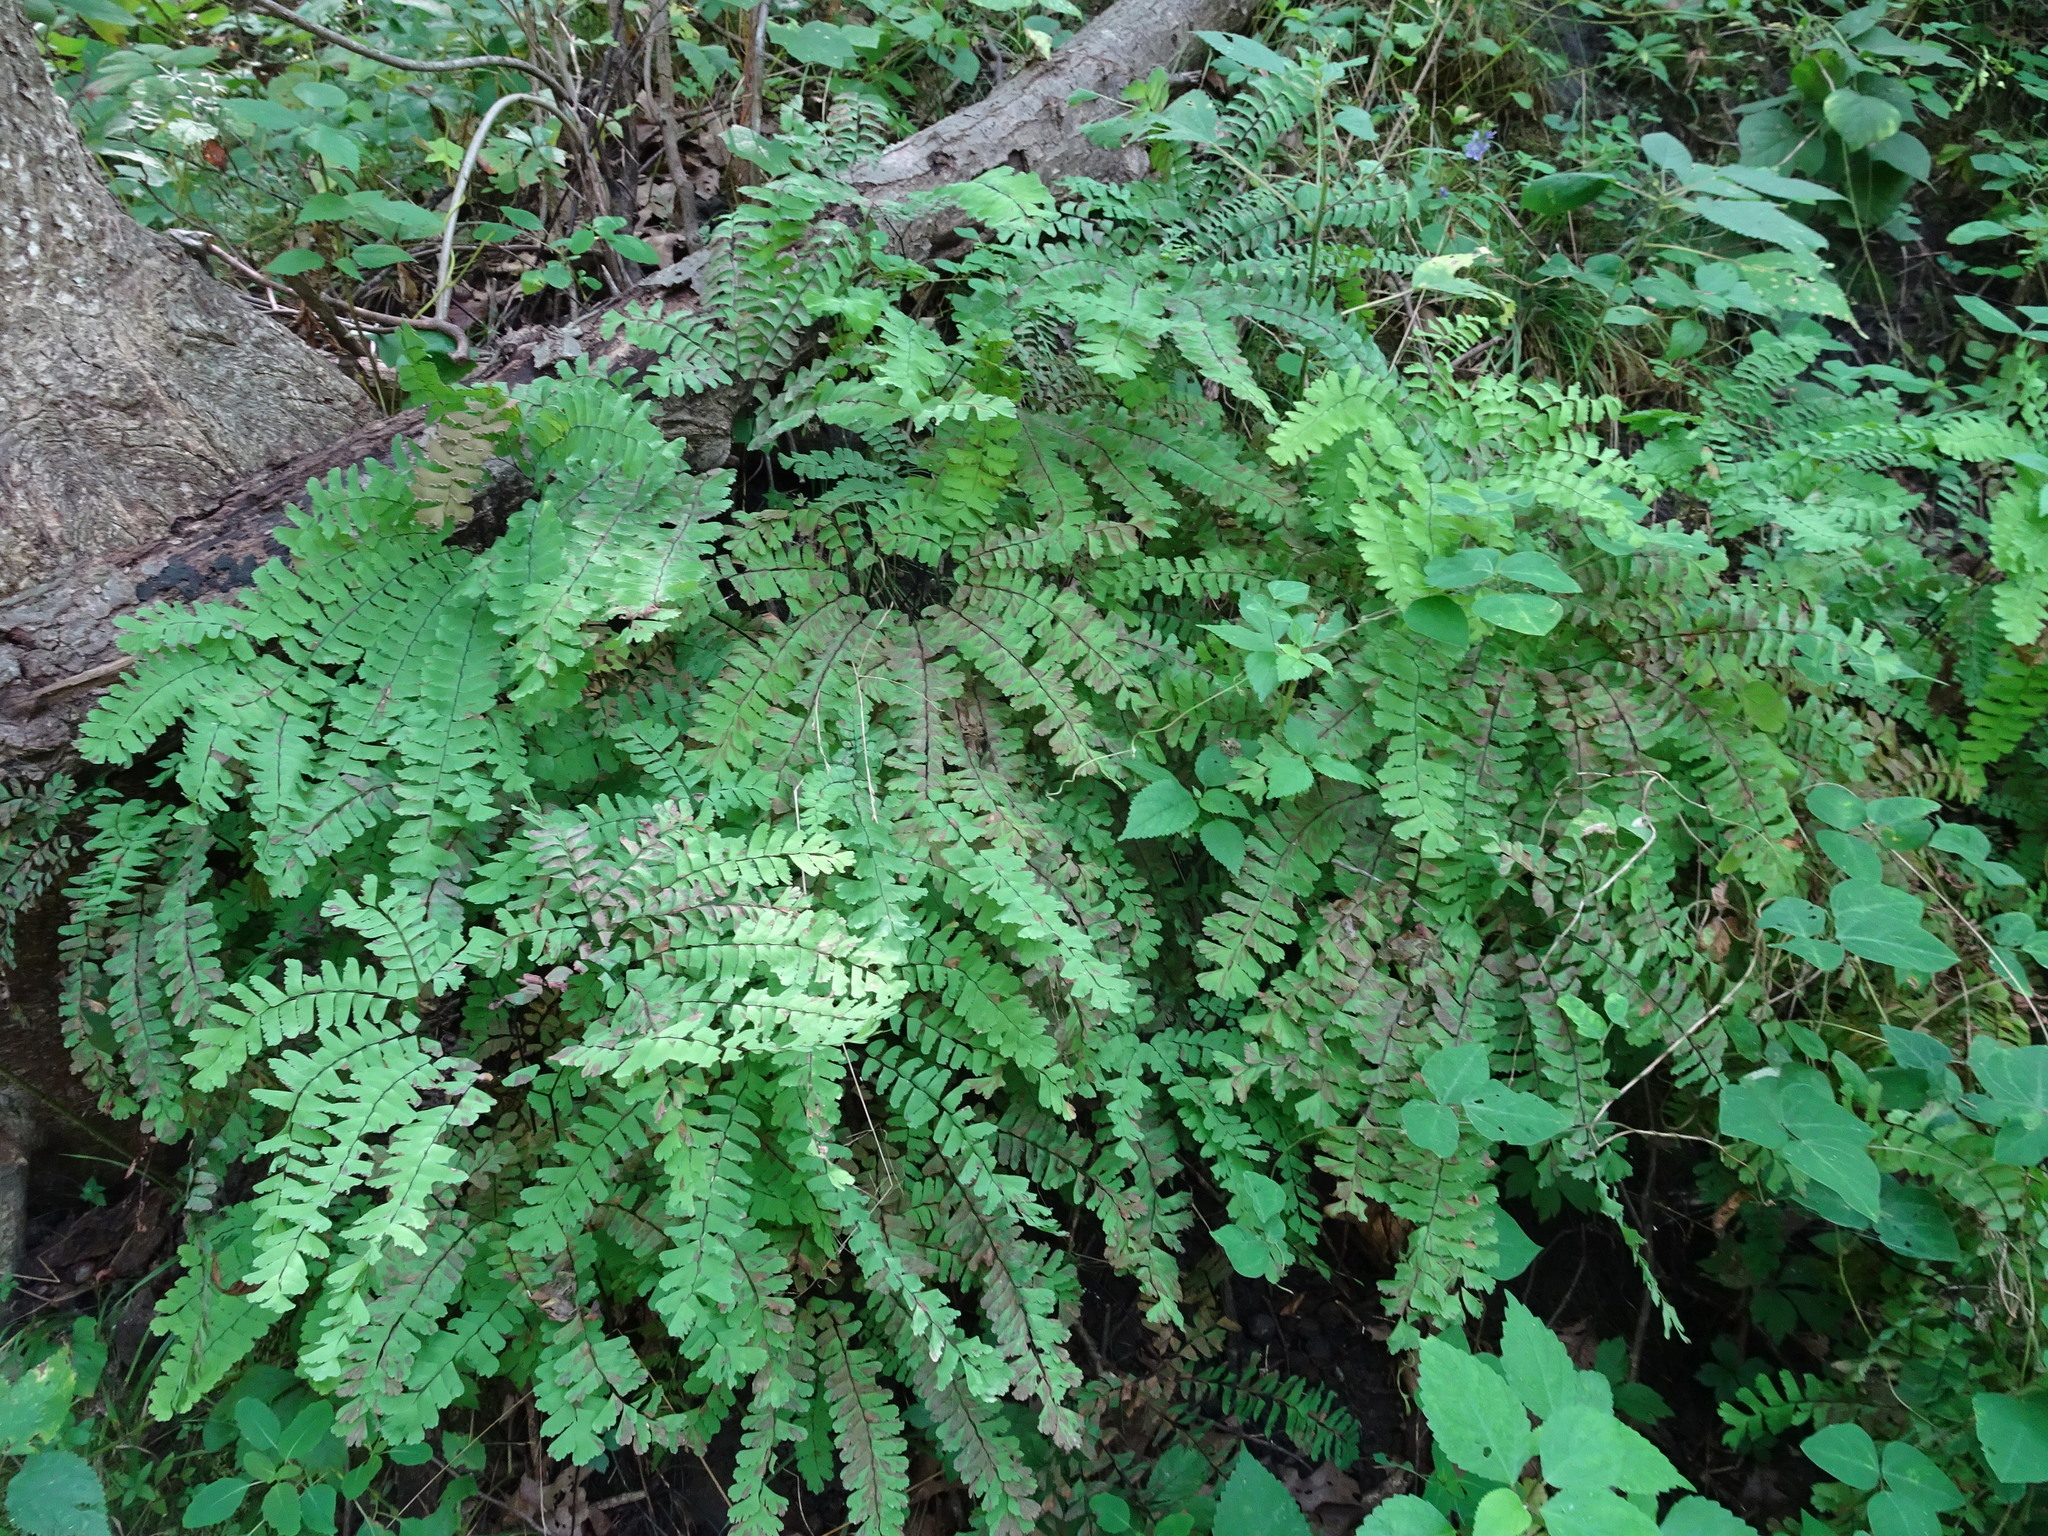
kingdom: Plantae
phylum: Tracheophyta
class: Polypodiopsida
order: Polypodiales
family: Pteridaceae
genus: Adiantum
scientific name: Adiantum pedatum
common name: Five-finger fern
